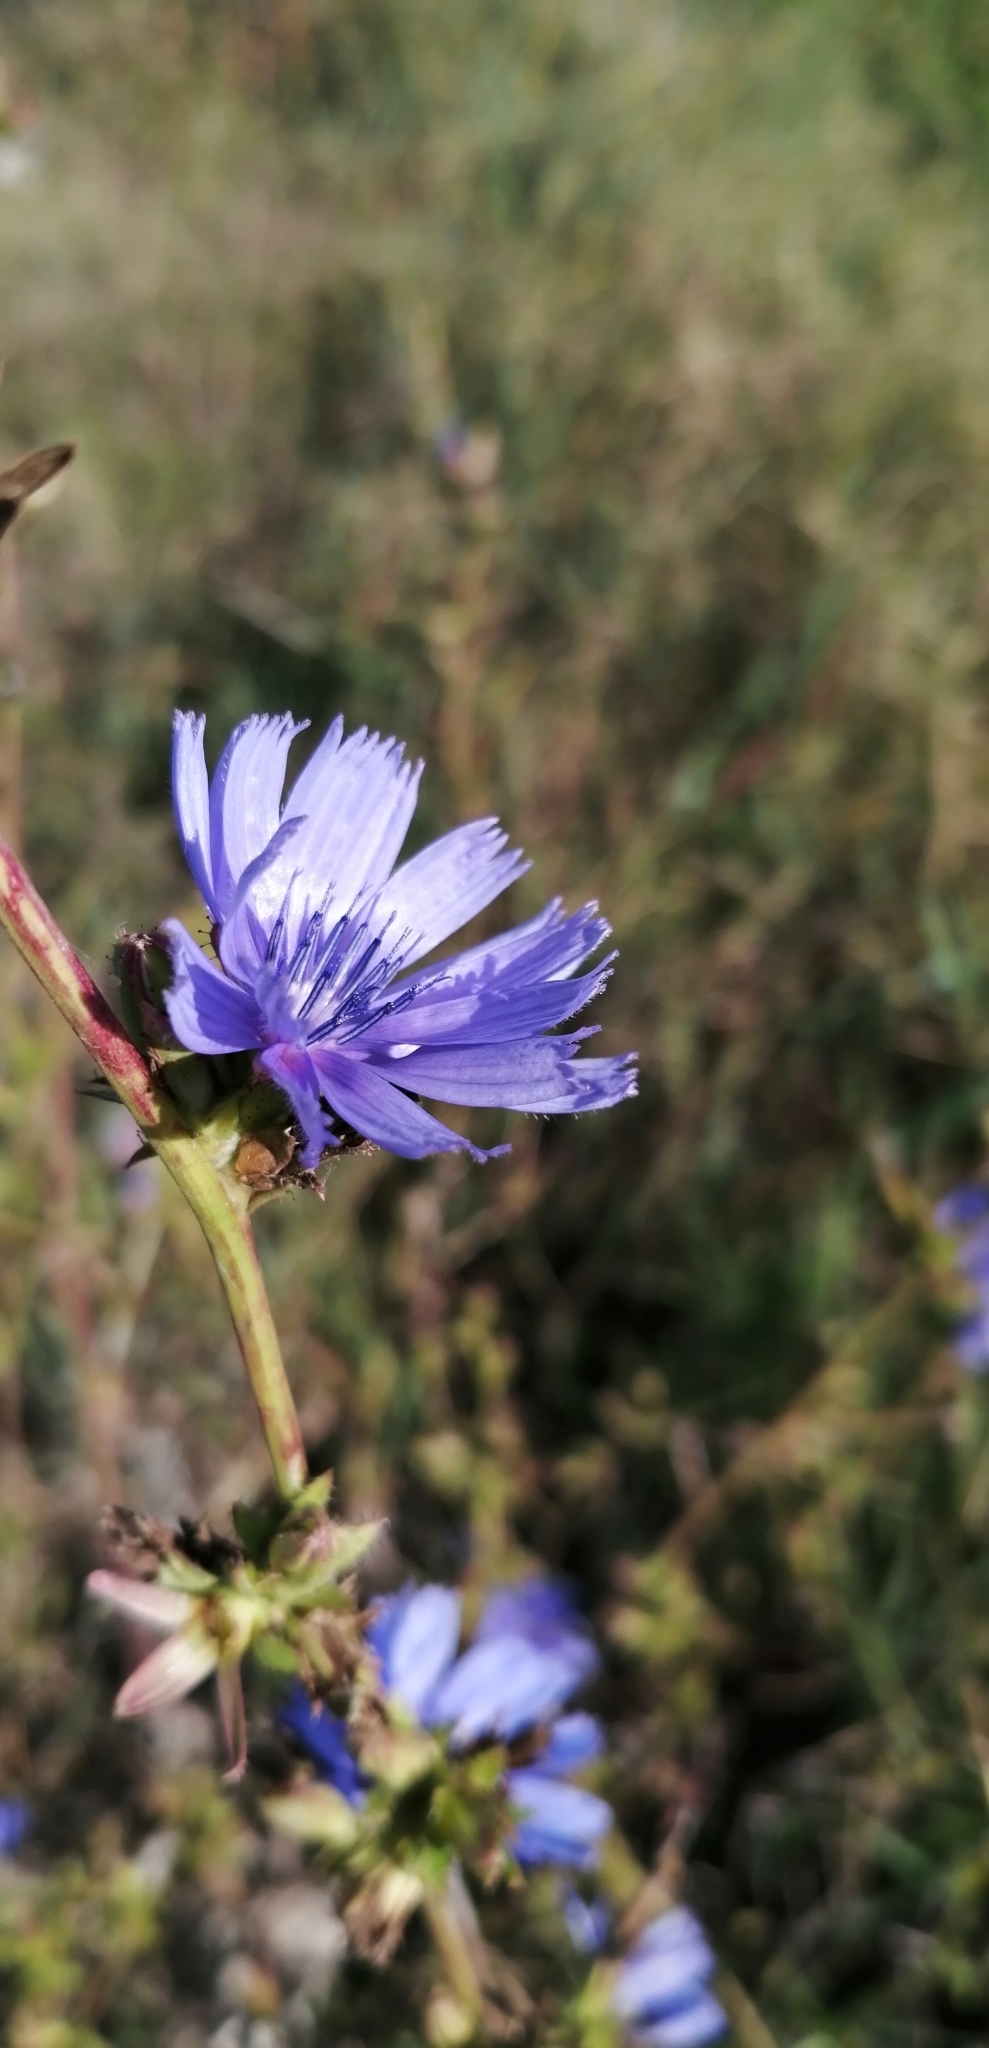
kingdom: Plantae
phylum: Tracheophyta
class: Magnoliopsida
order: Asterales
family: Asteraceae
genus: Cichorium
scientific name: Cichorium intybus
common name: Chicory
